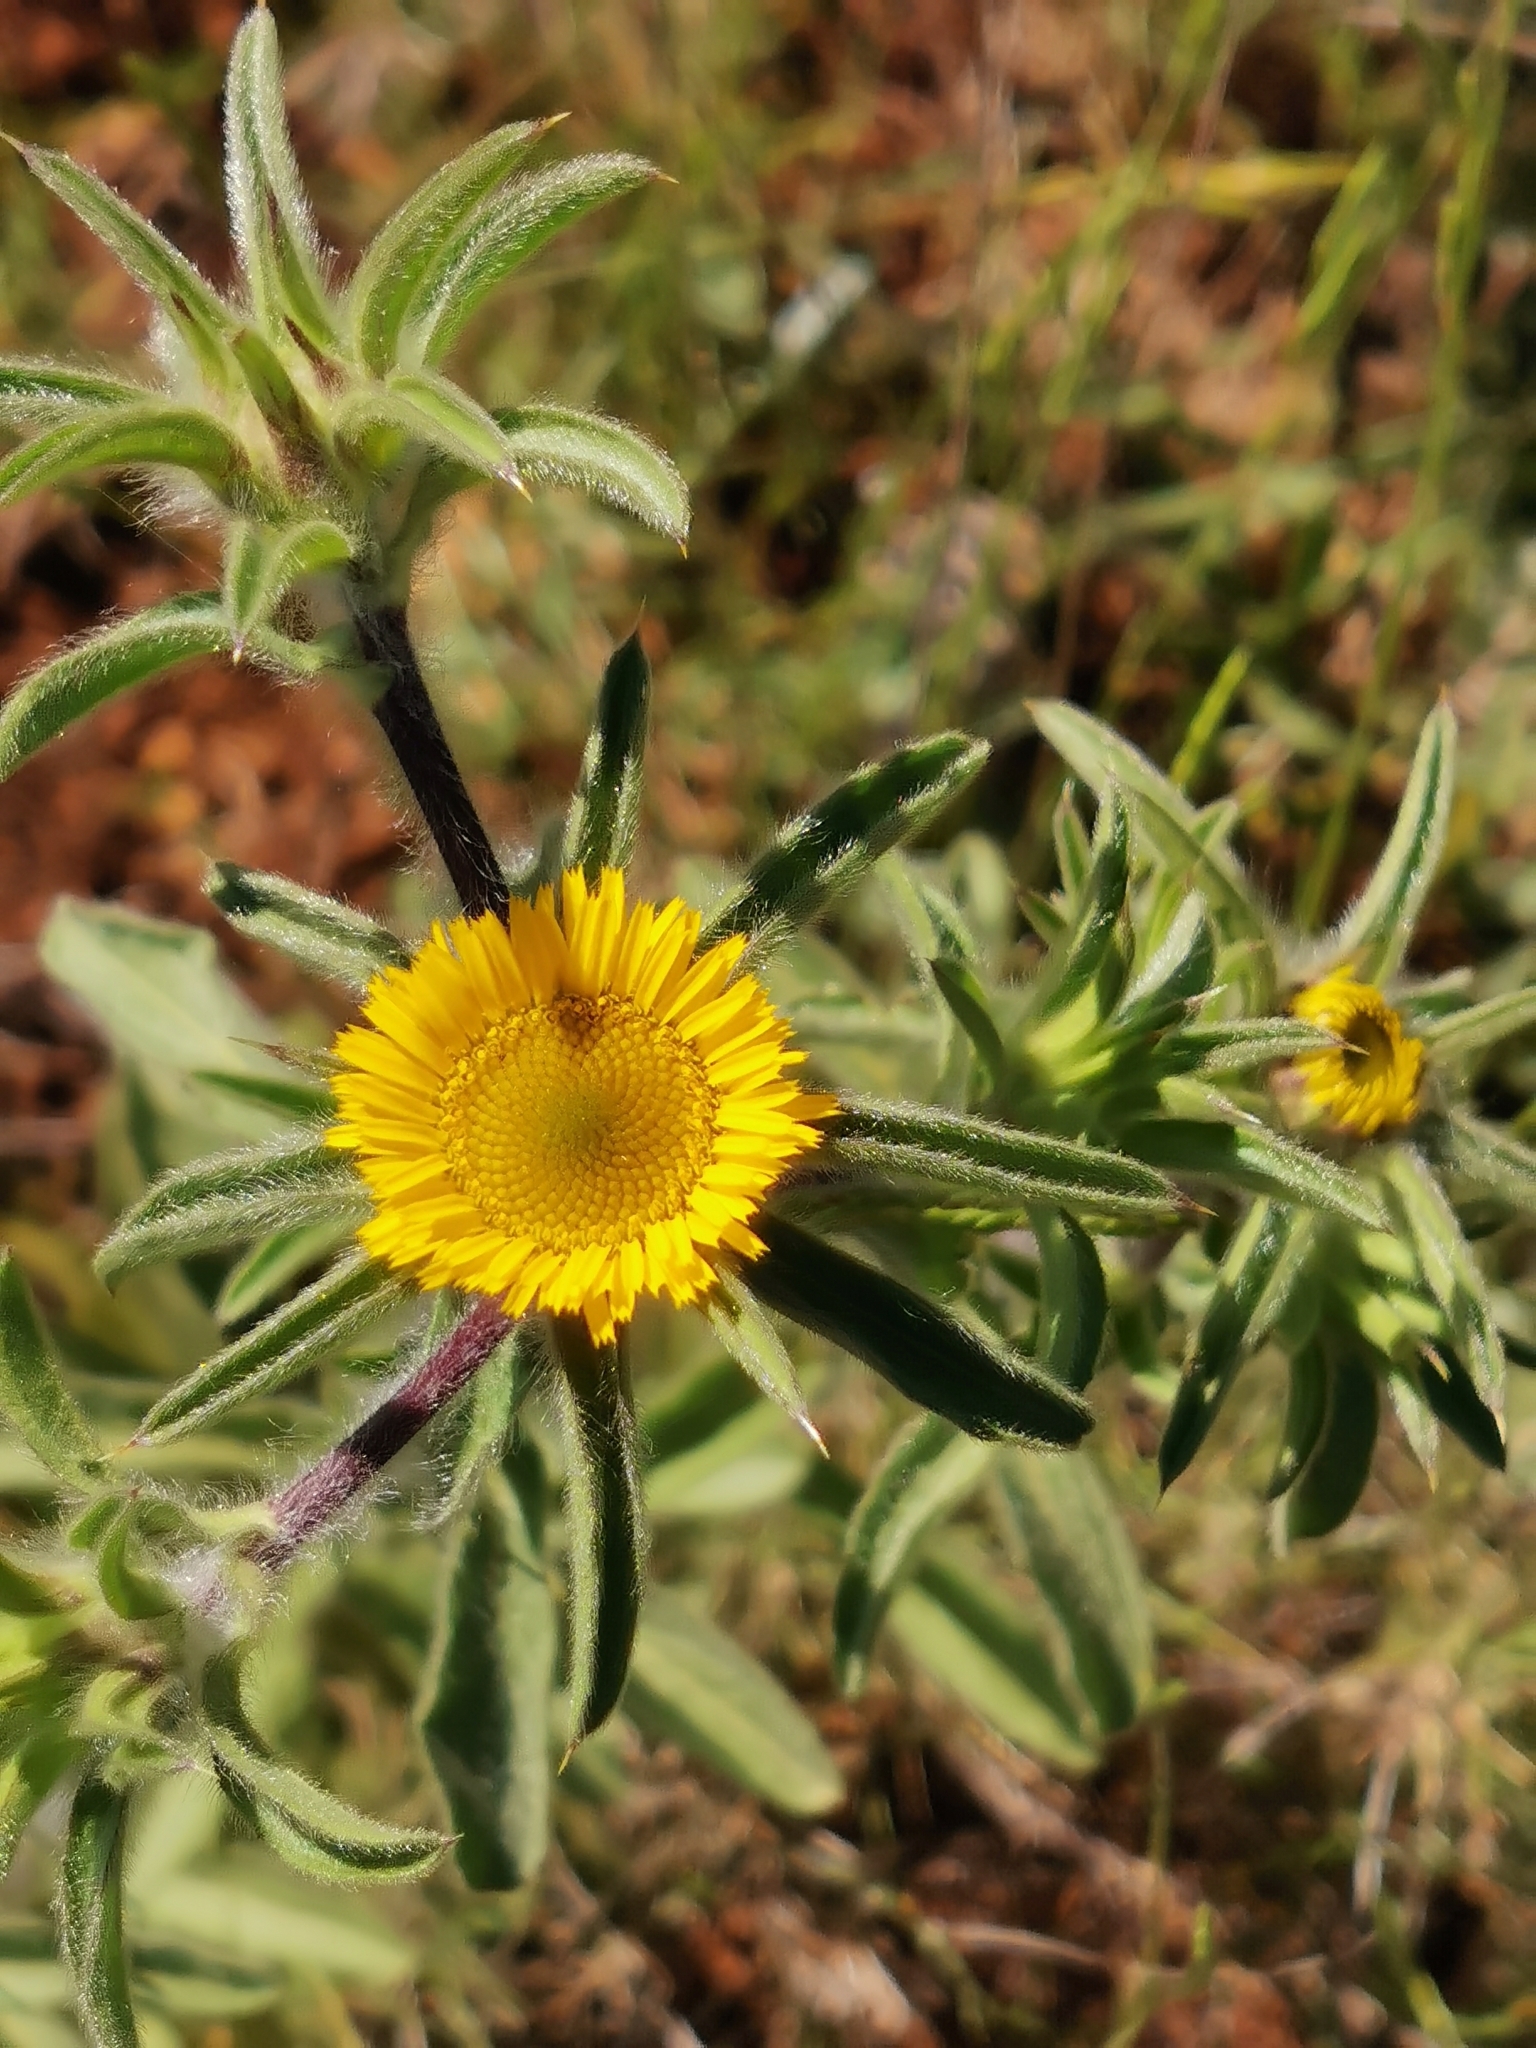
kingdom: Plantae
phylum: Tracheophyta
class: Magnoliopsida
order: Asterales
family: Asteraceae
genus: Pallenis
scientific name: Pallenis spinosa
